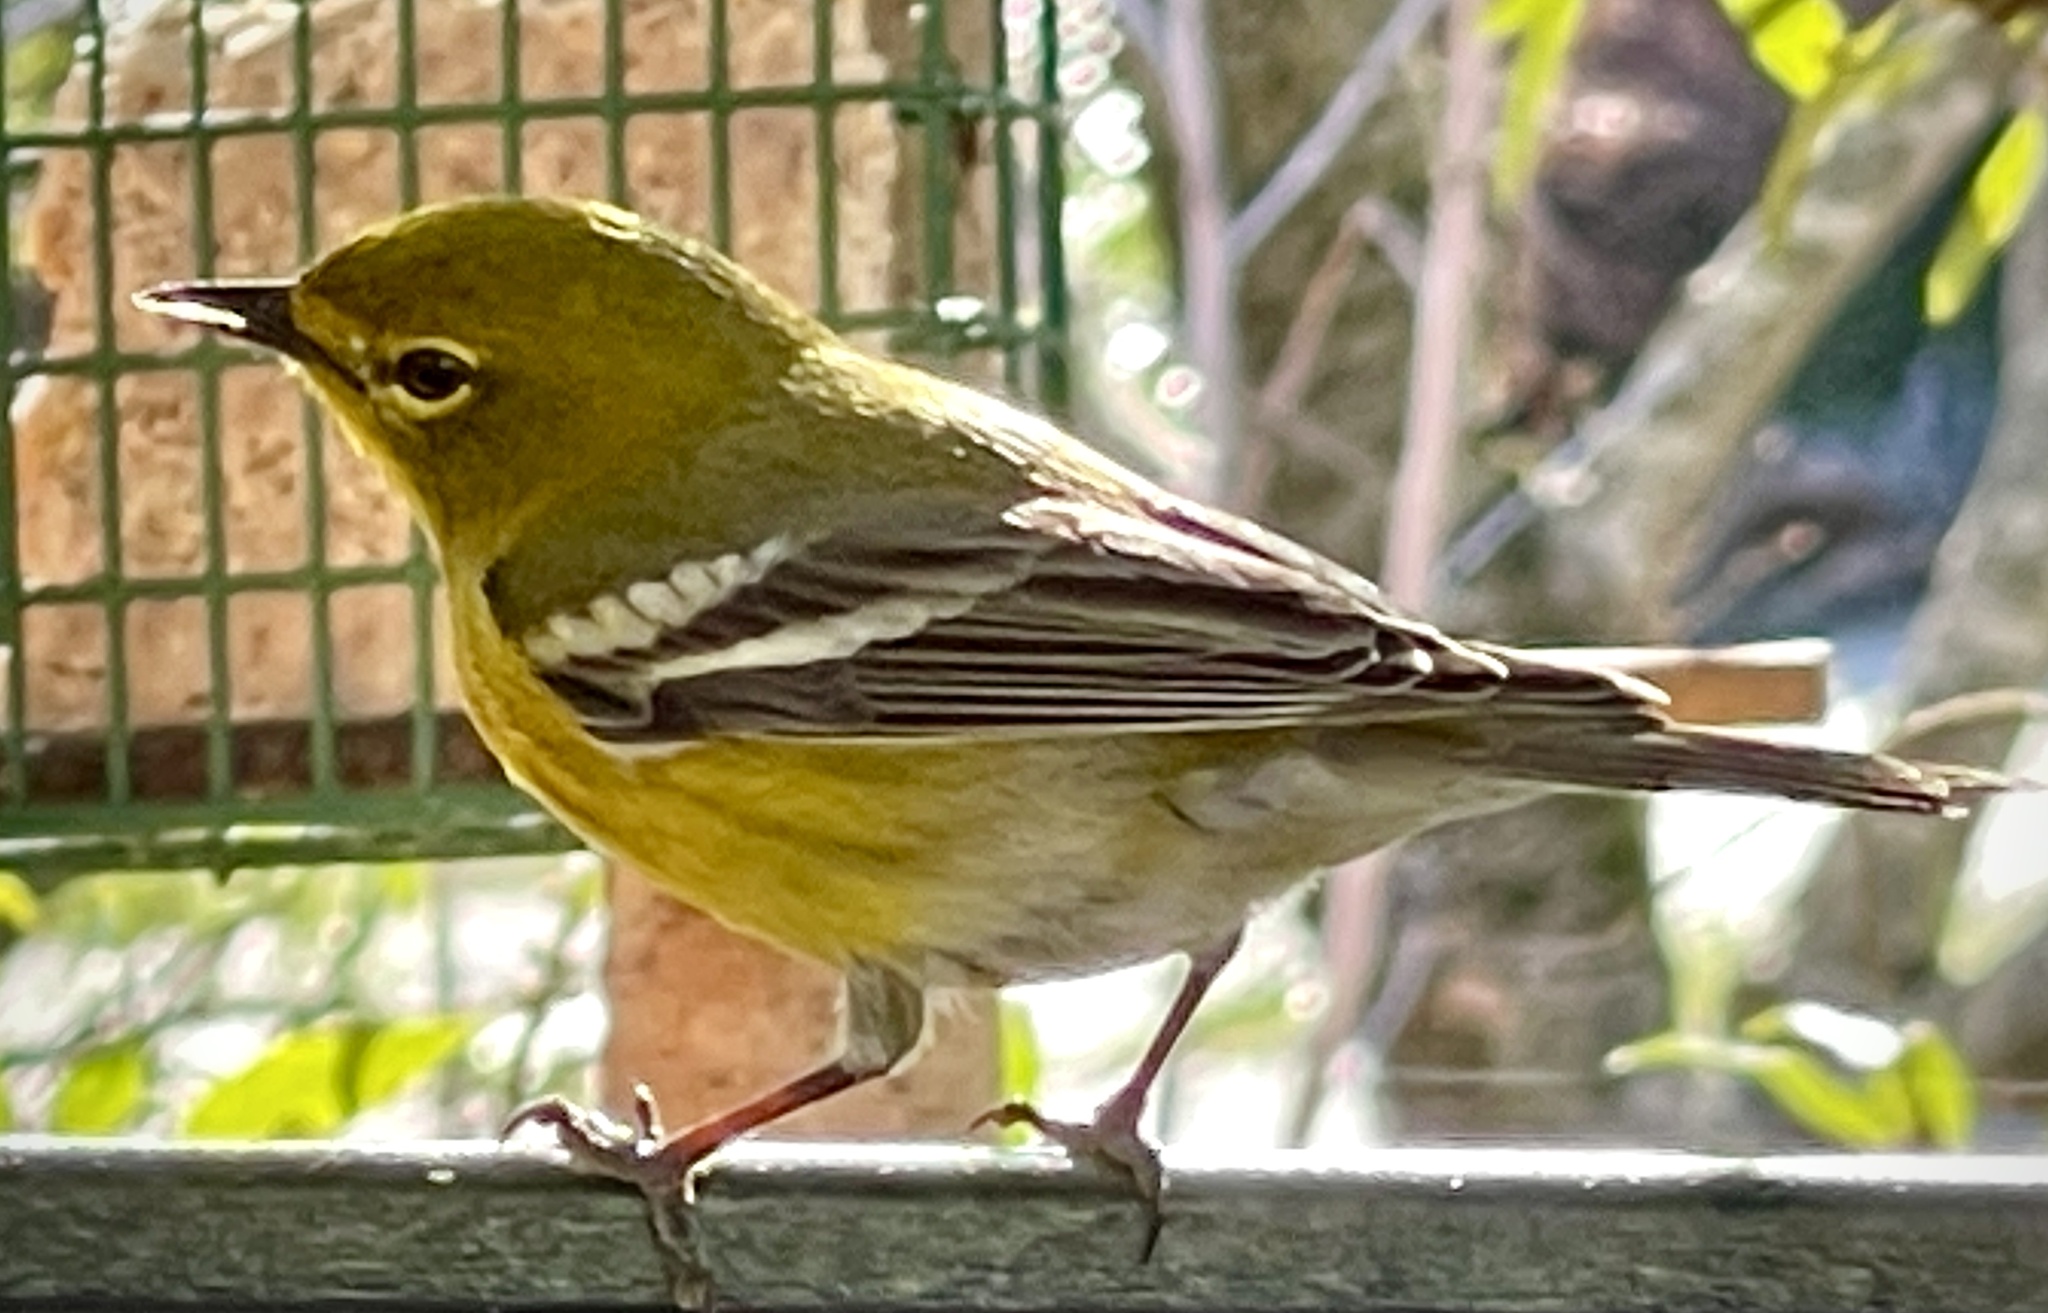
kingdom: Animalia
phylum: Chordata
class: Aves
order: Passeriformes
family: Parulidae
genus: Setophaga
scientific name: Setophaga pinus
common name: Pine warbler
